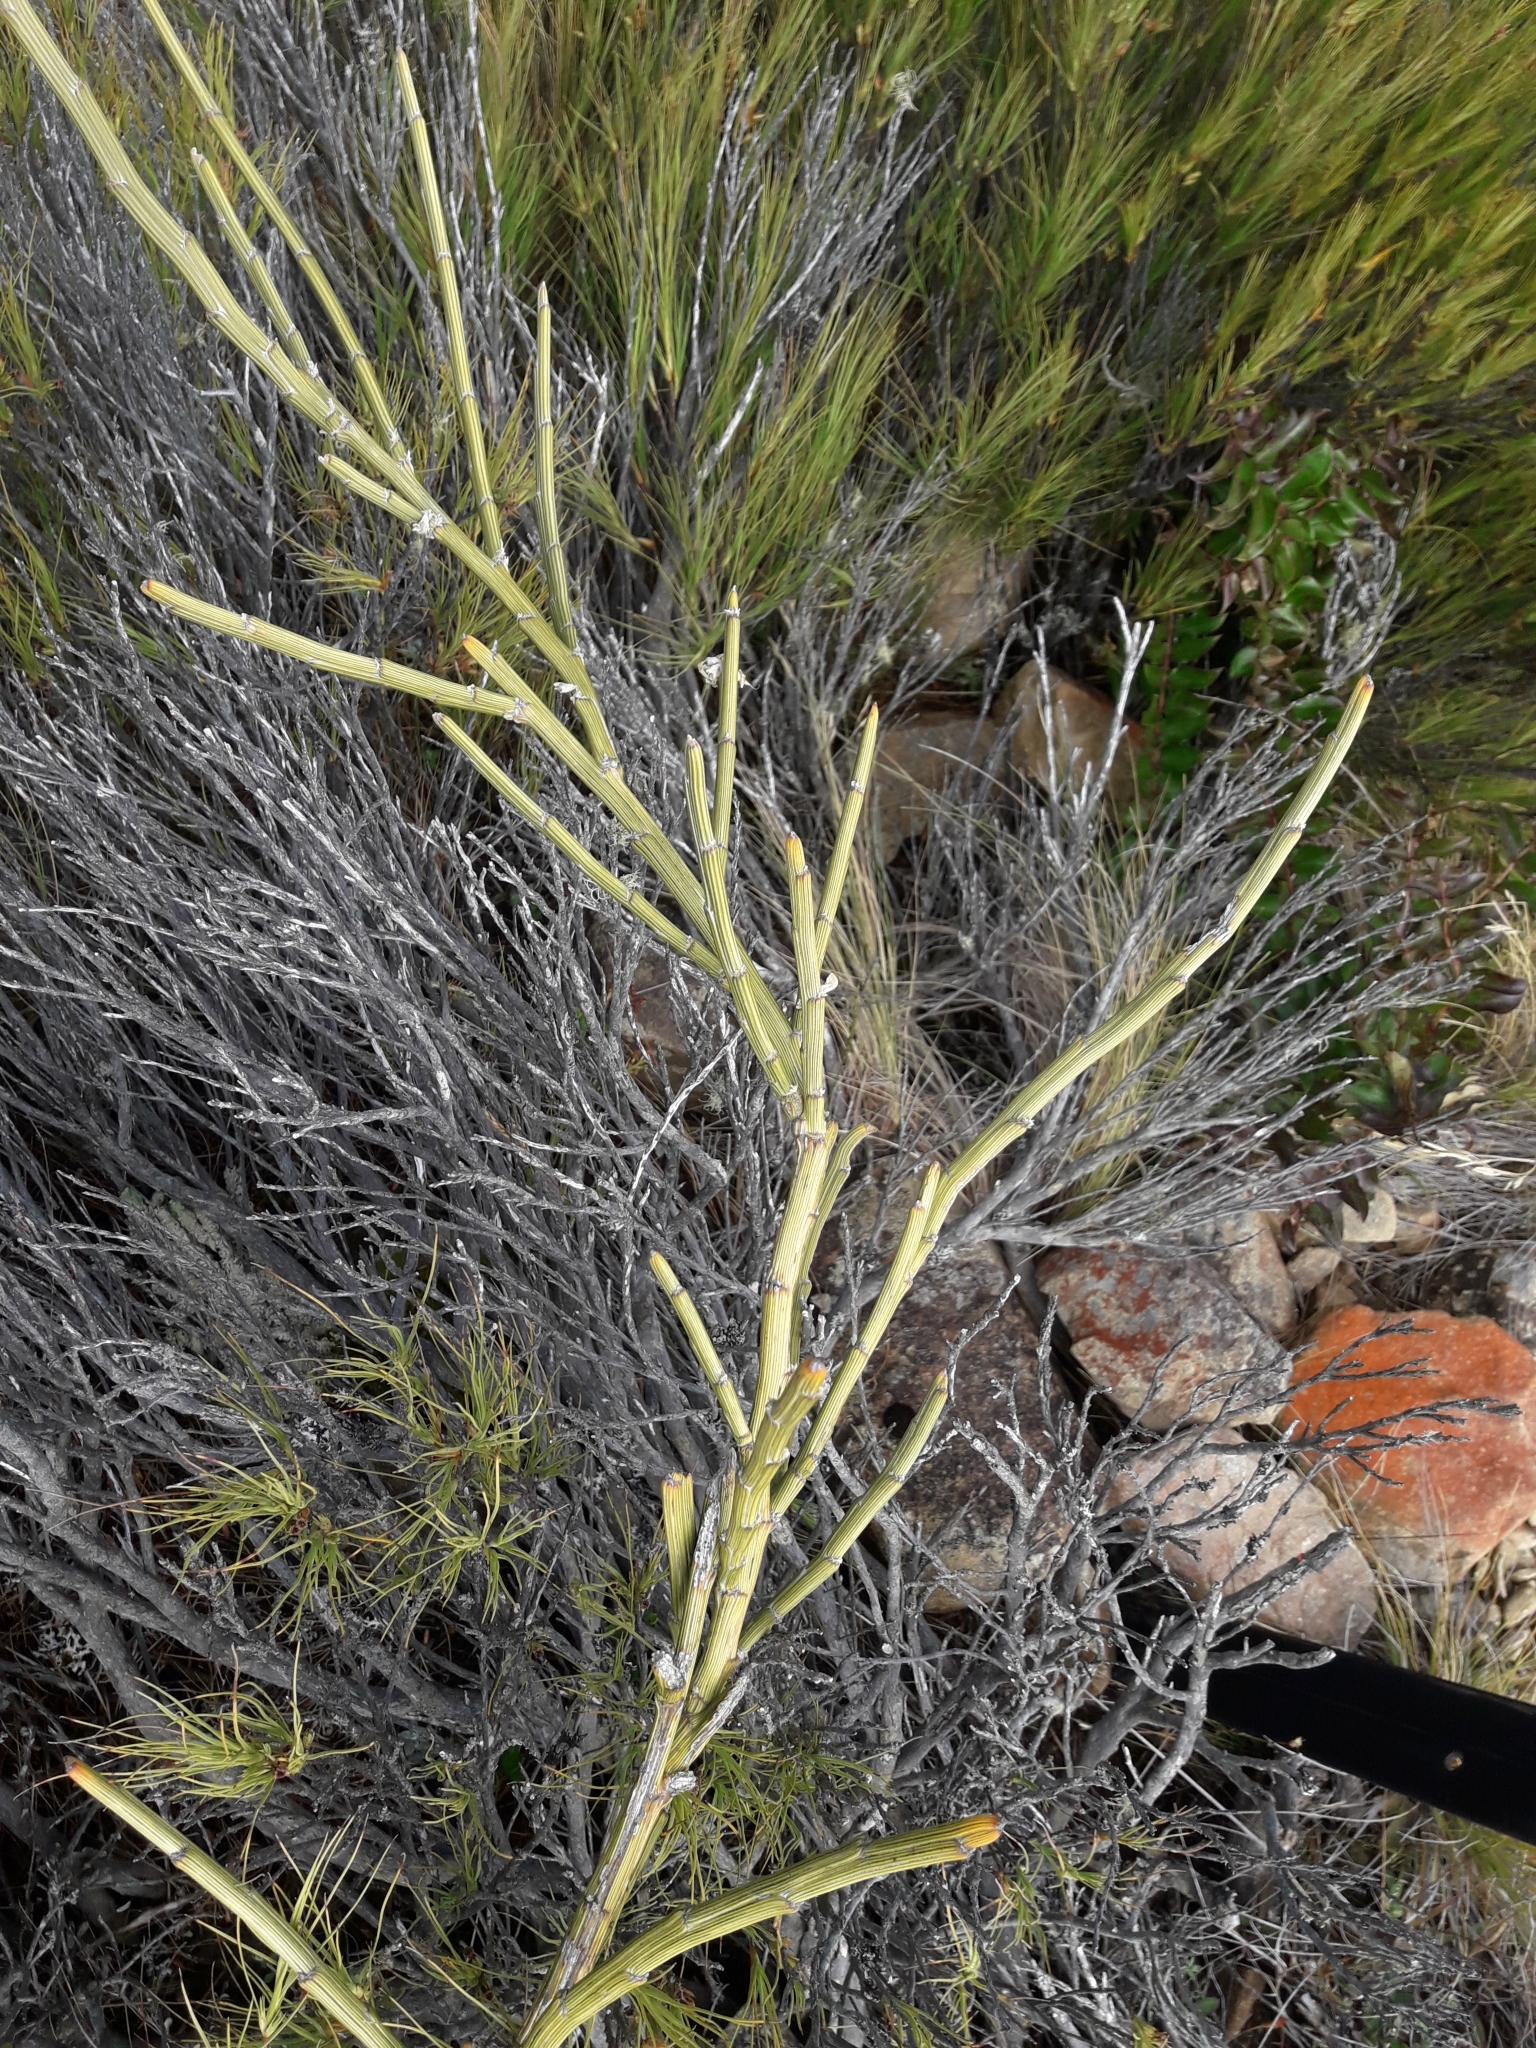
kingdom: Plantae
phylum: Tracheophyta
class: Magnoliopsida
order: Fabales
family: Fabaceae
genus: Carmichaelia
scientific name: Carmichaelia crassicaulis
